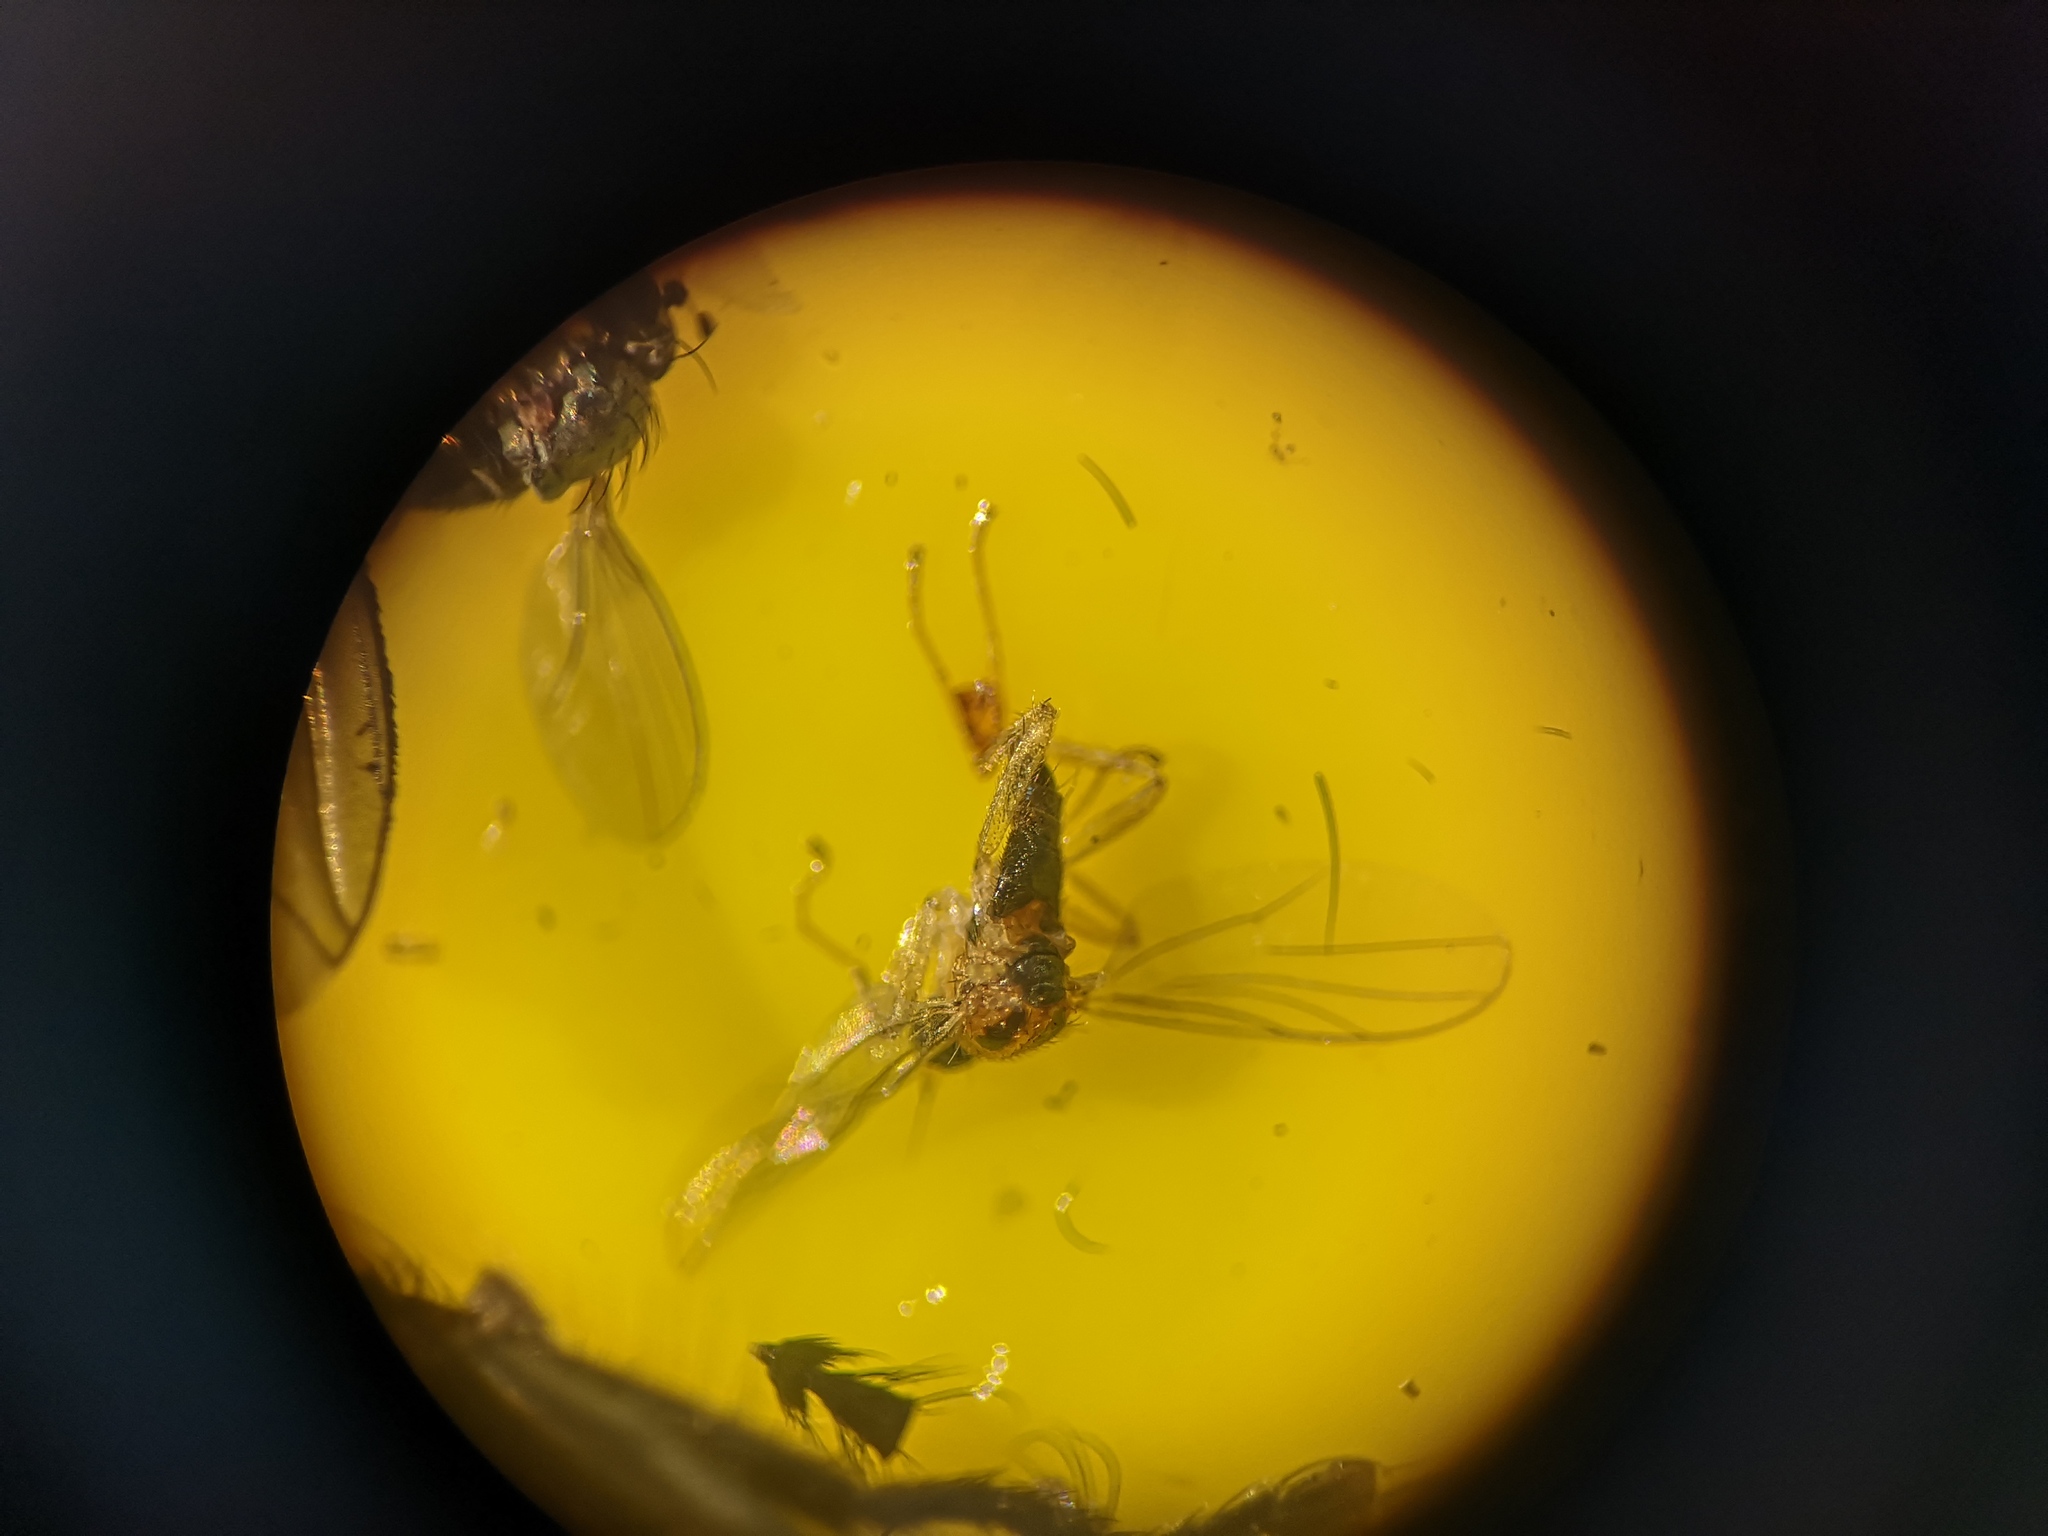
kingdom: Animalia
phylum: Arthropoda
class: Insecta
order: Diptera
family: Hybotidae
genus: Drapetis
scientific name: Drapetis ephippiata
